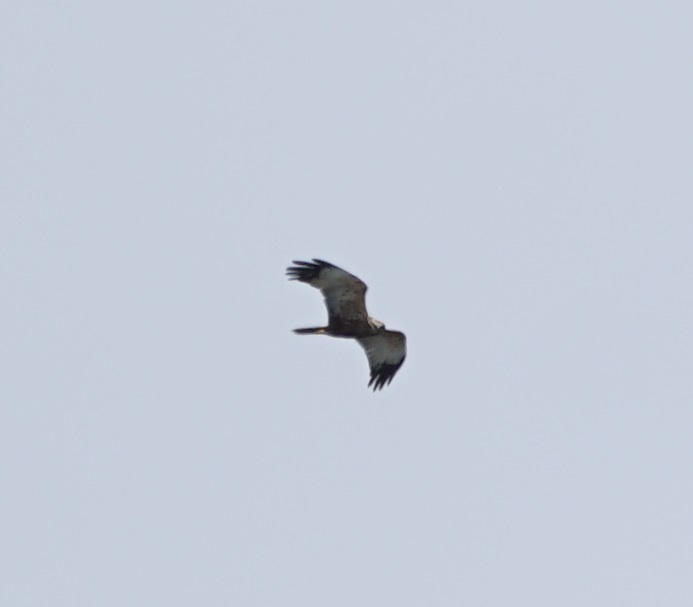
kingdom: Animalia
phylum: Chordata
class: Aves
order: Accipitriformes
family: Accipitridae
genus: Circus
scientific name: Circus aeruginosus
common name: Western marsh harrier
